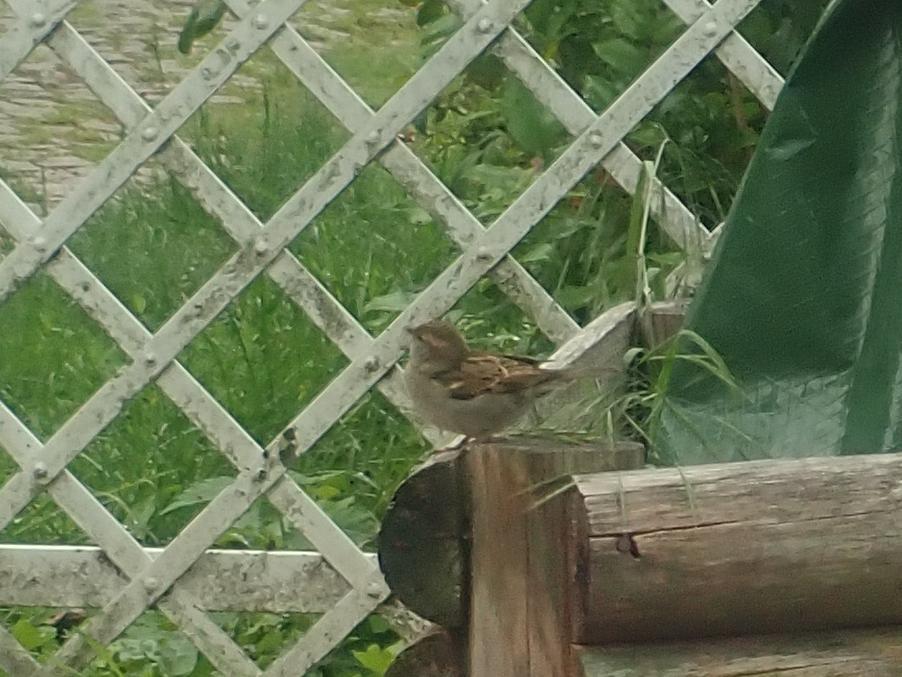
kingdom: Animalia
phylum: Chordata
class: Aves
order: Passeriformes
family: Passeridae
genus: Passer
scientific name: Passer domesticus
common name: House sparrow
